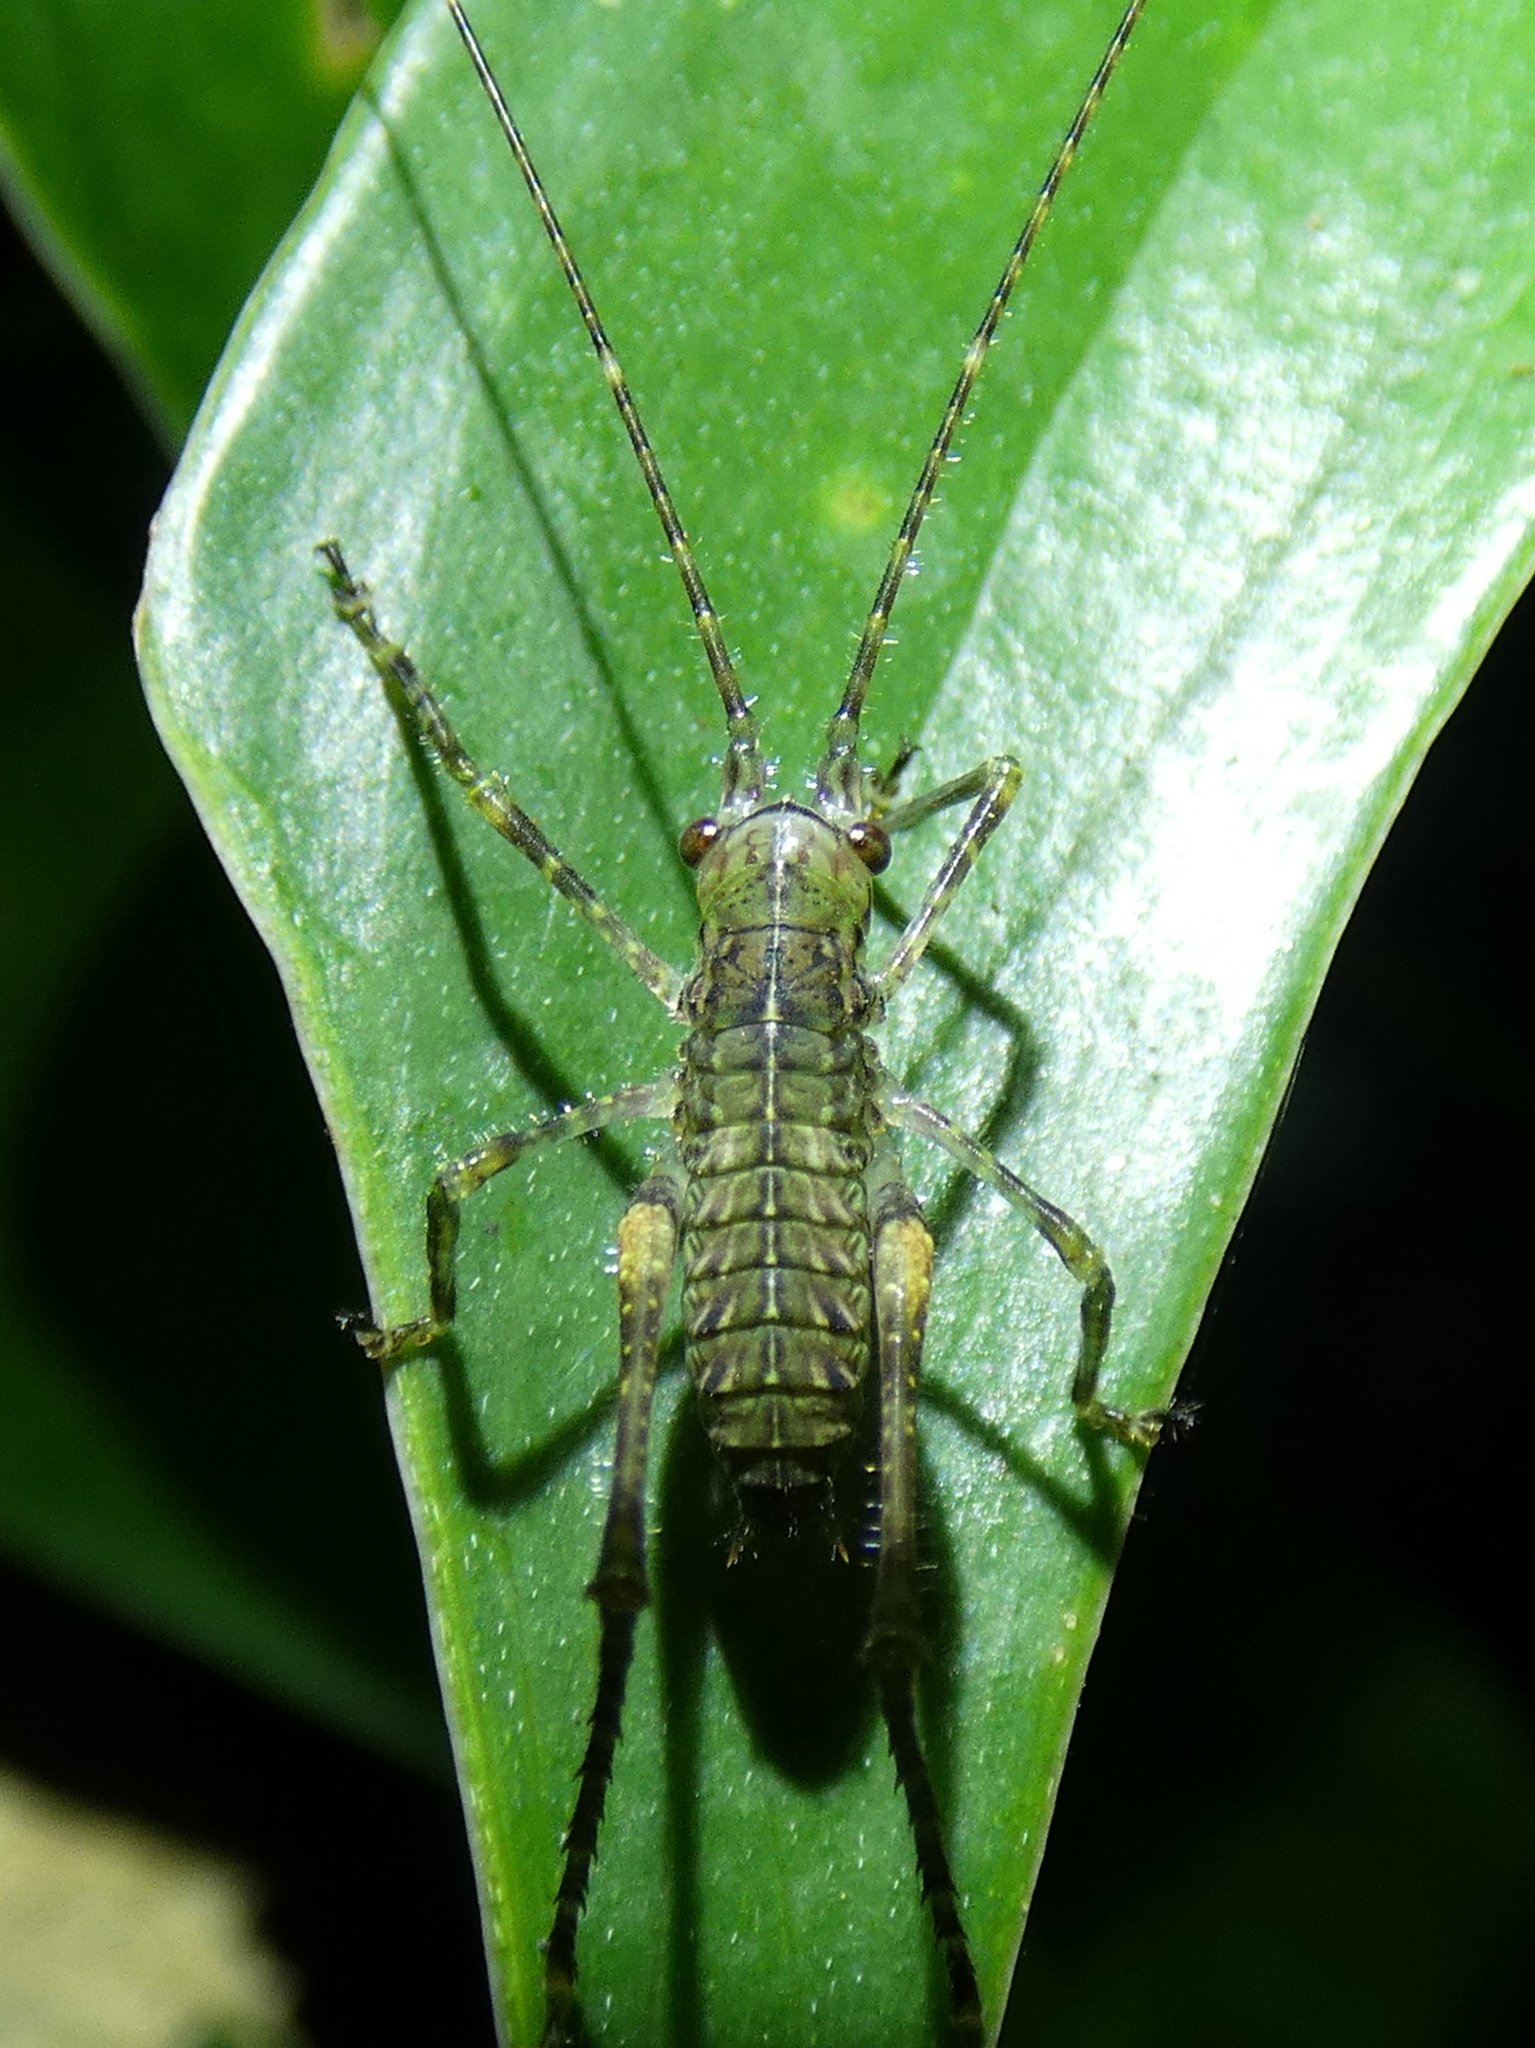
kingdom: Animalia
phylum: Arthropoda
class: Insecta
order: Orthoptera
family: Tettigoniidae
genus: Phricta
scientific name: Phricta spinosa
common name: Giant spiny forest katydid
